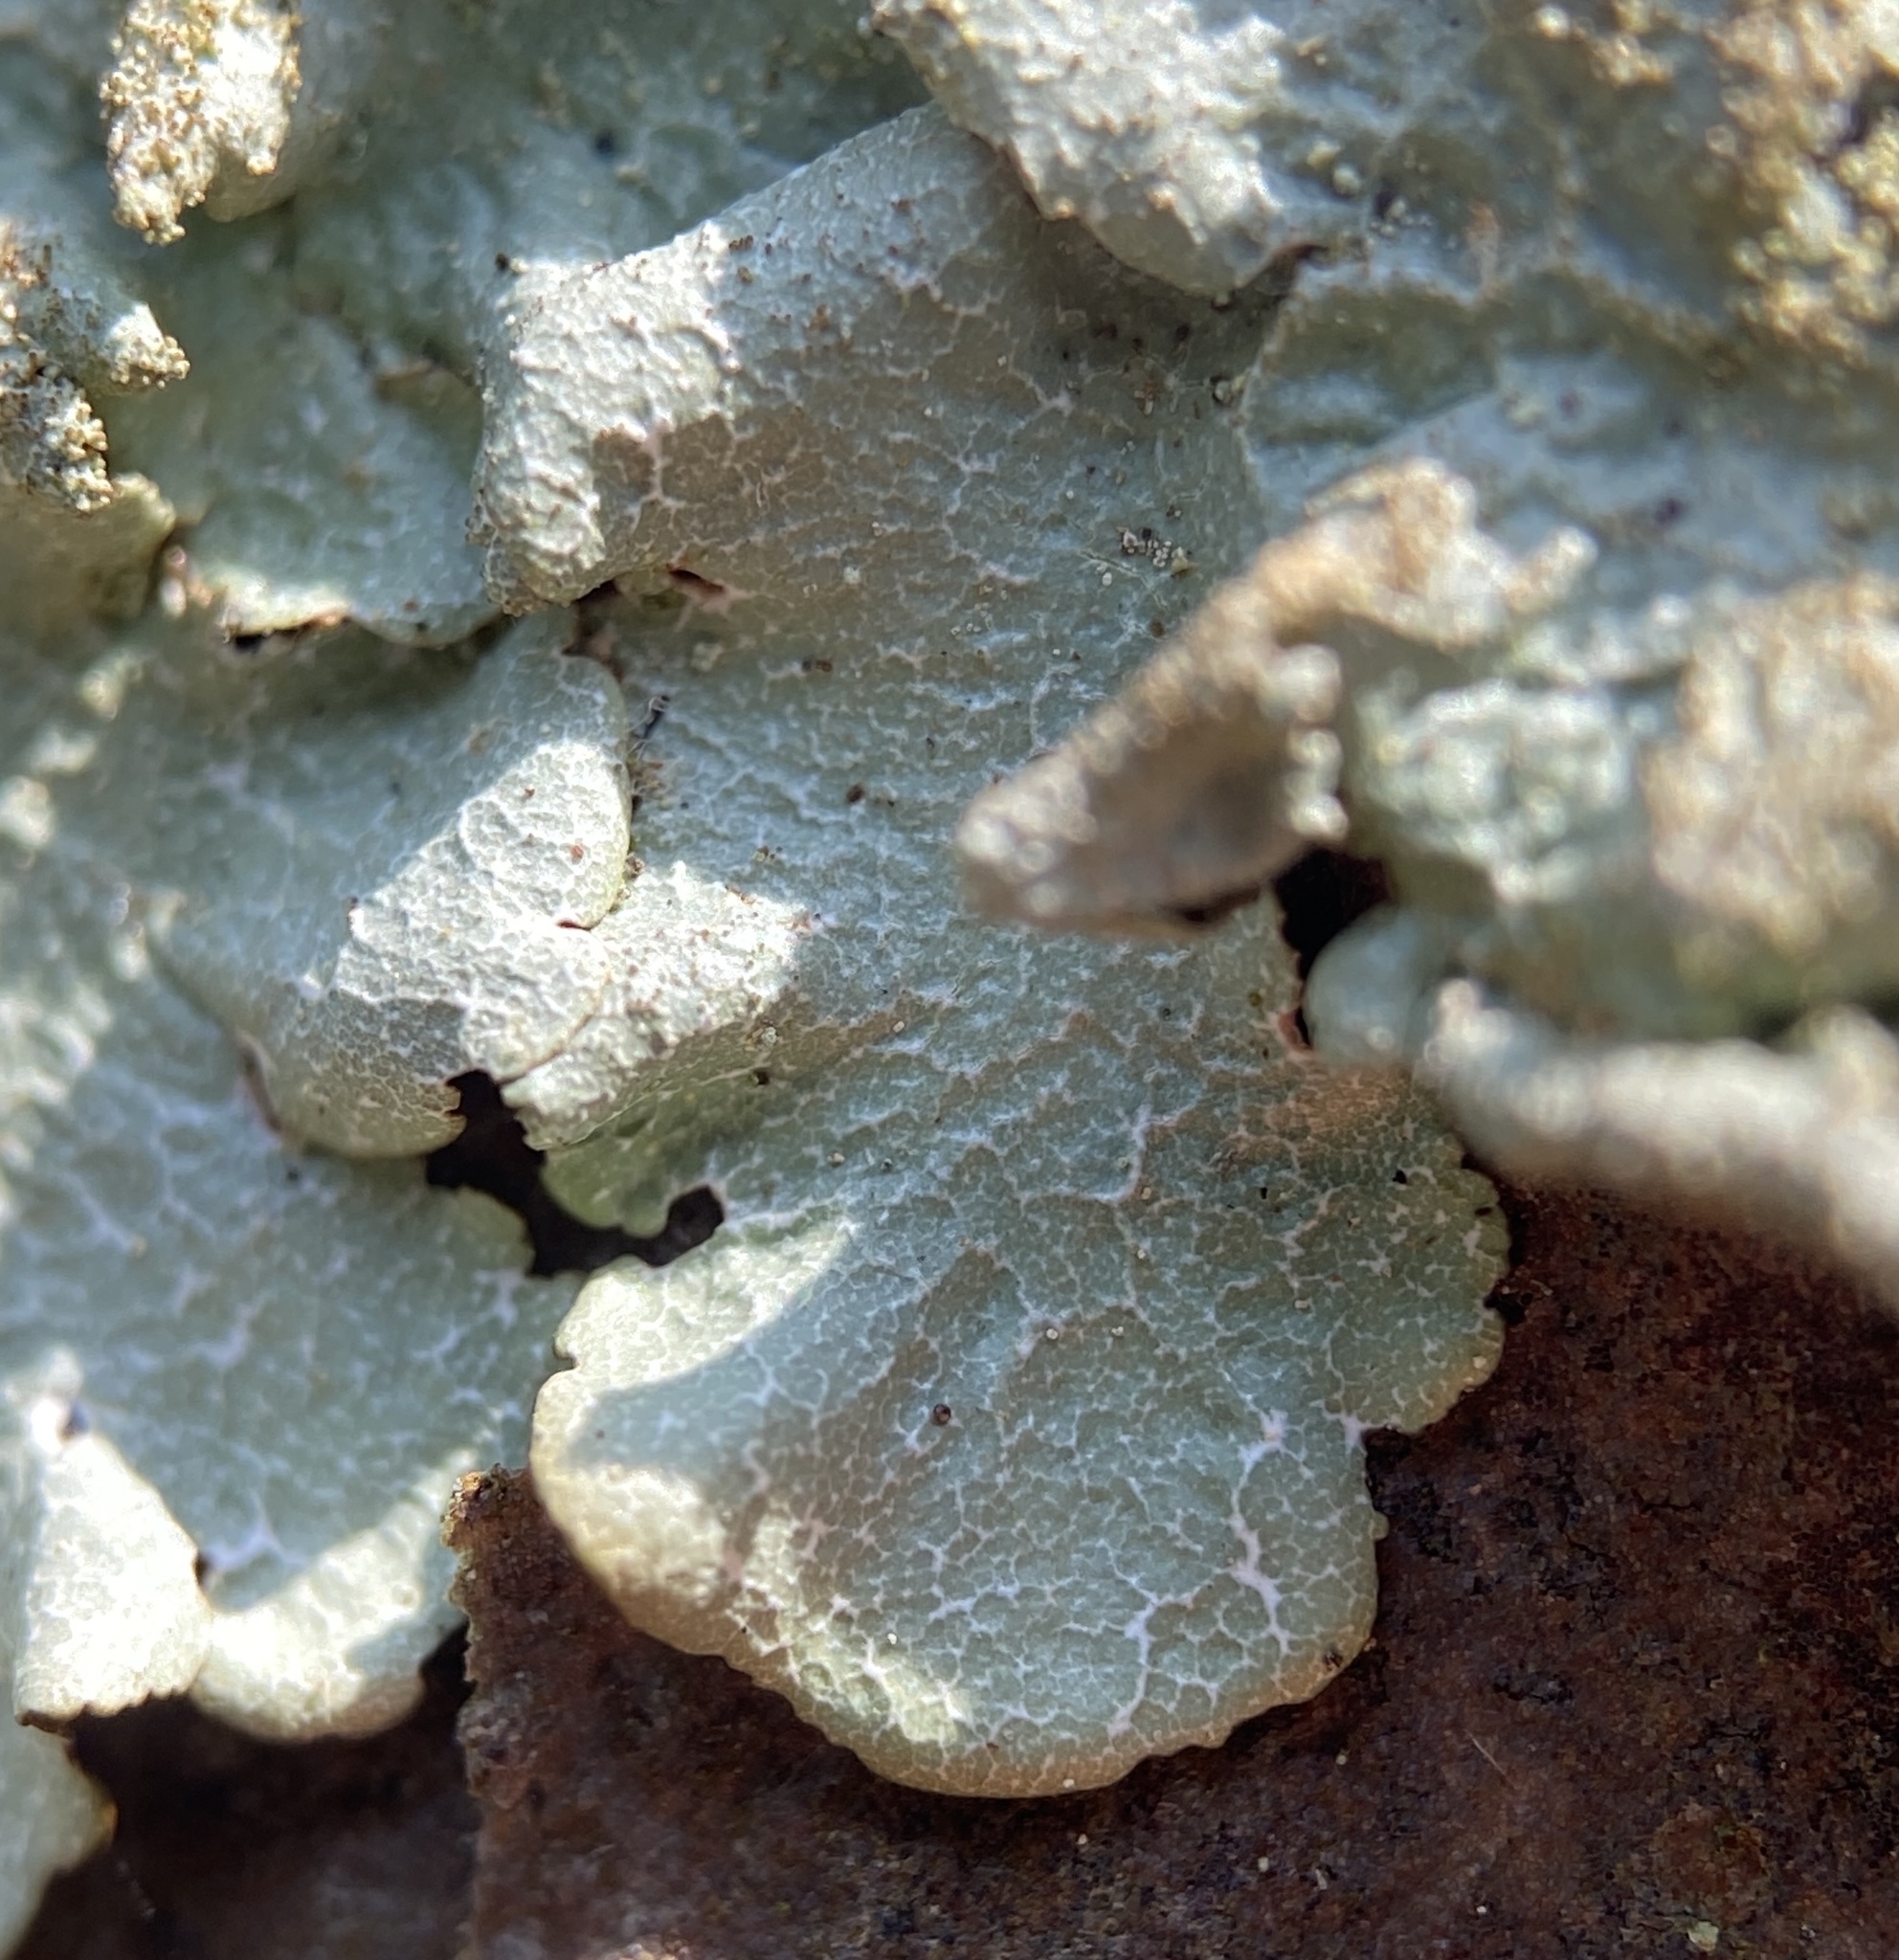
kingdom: Fungi
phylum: Ascomycota
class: Lecanoromycetes
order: Lecanorales
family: Parmeliaceae
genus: Canoparmelia
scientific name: Canoparmelia caroliniana
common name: Carolina shield lichen
